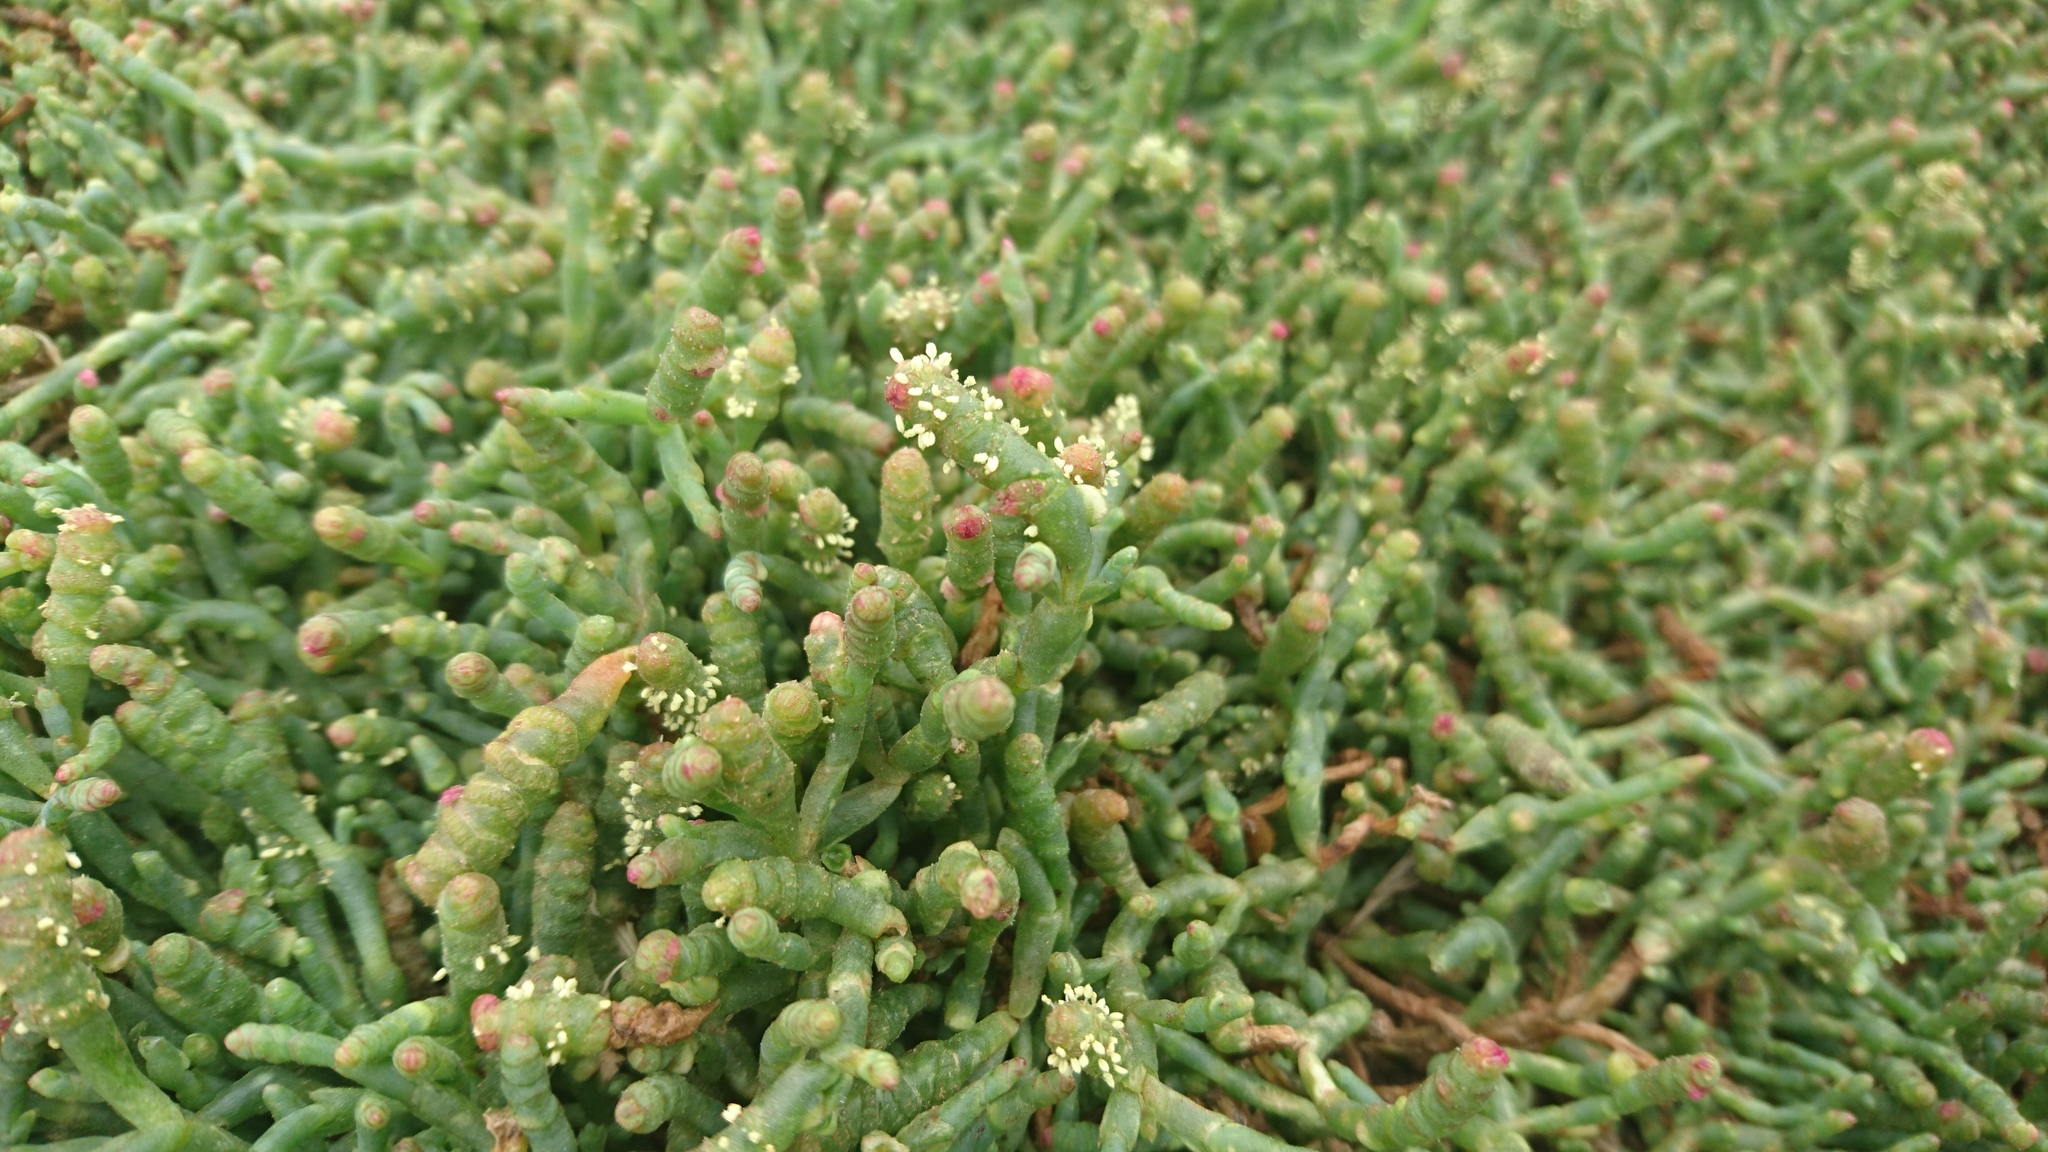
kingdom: Plantae
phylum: Tracheophyta
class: Magnoliopsida
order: Caryophyllales
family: Amaranthaceae
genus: Salicornia
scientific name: Salicornia quinqueflora
